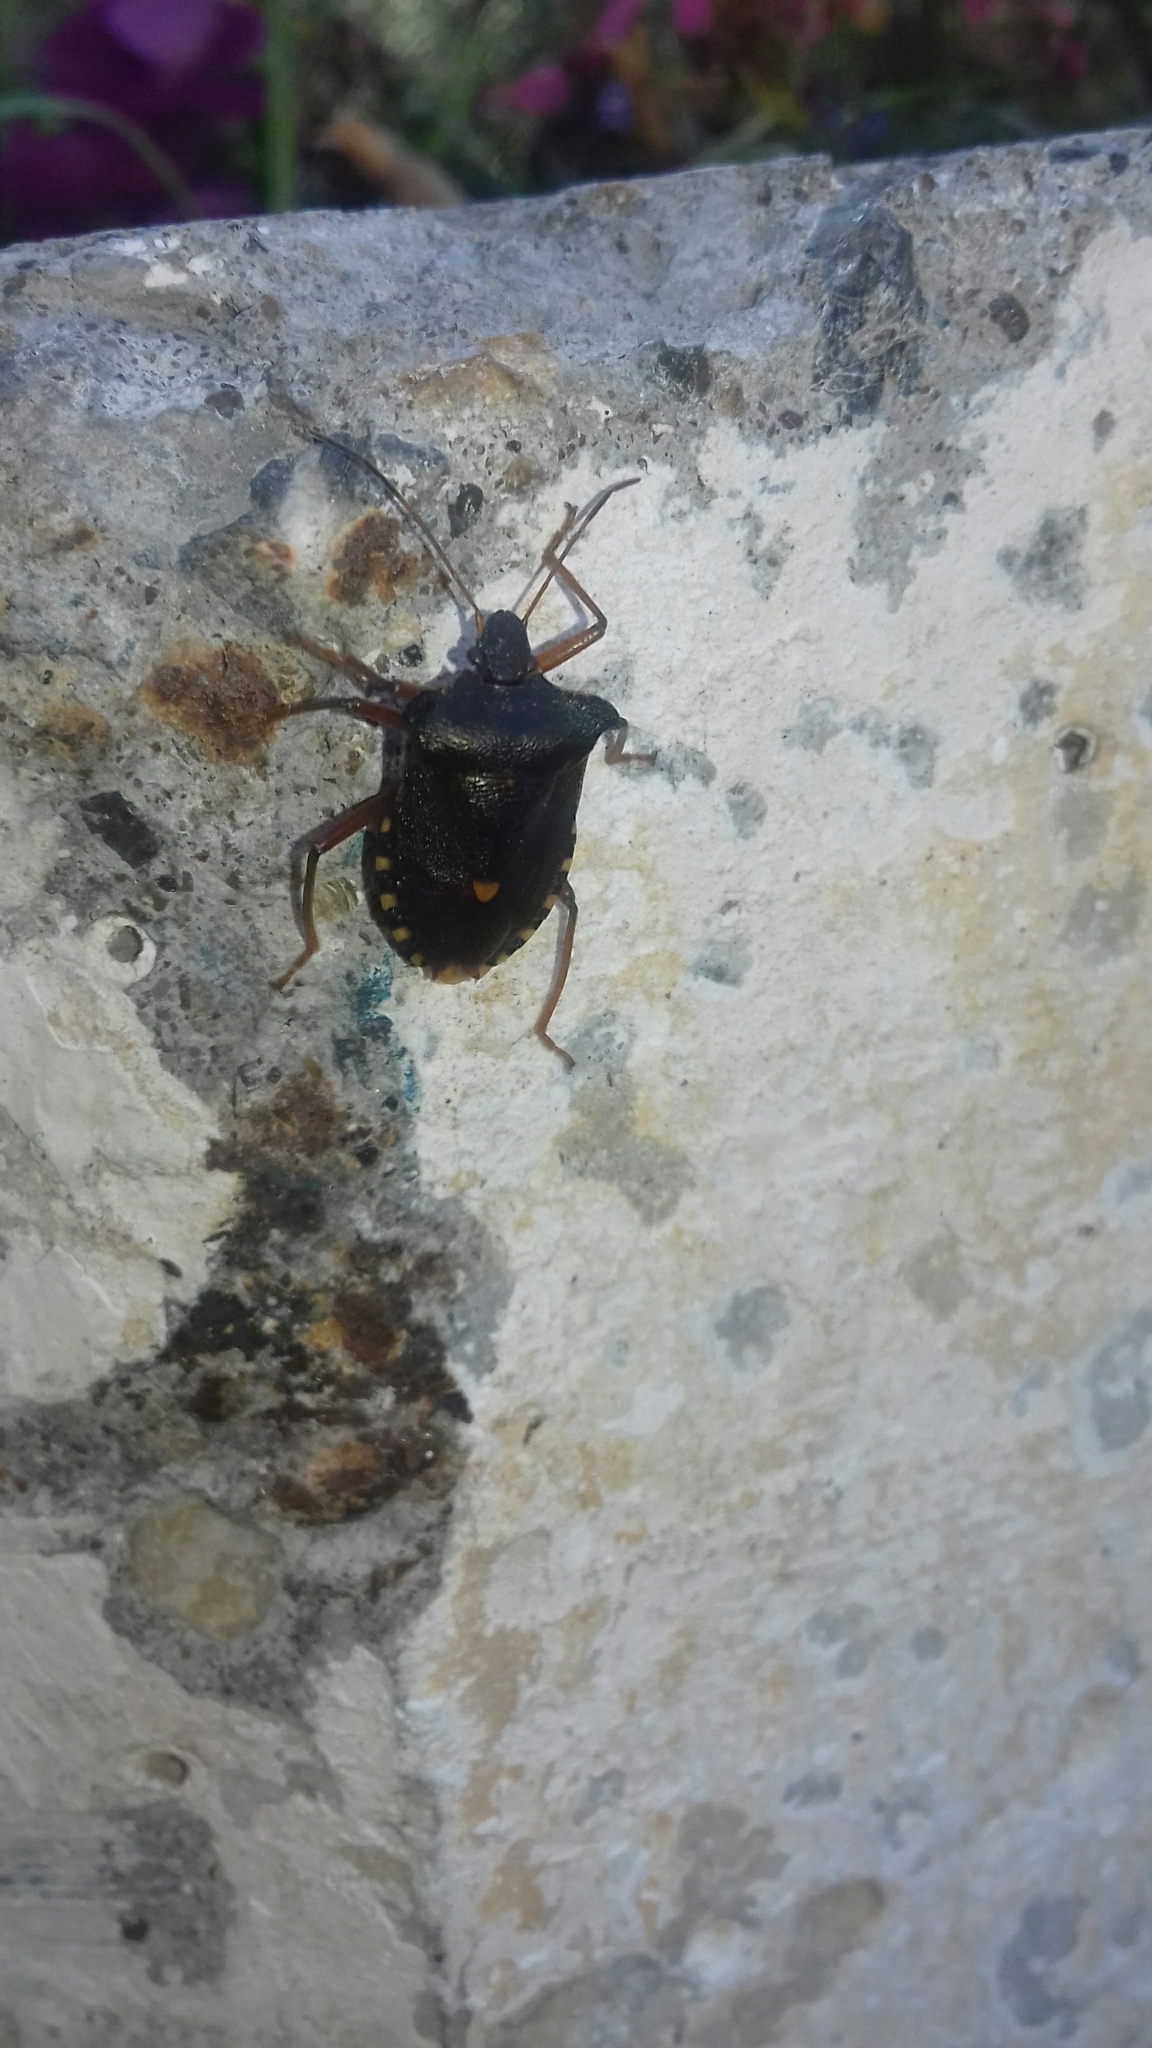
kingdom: Animalia
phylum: Arthropoda
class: Insecta
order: Hemiptera
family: Pentatomidae
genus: Pentatoma
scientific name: Pentatoma rufipes
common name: Forest bug
